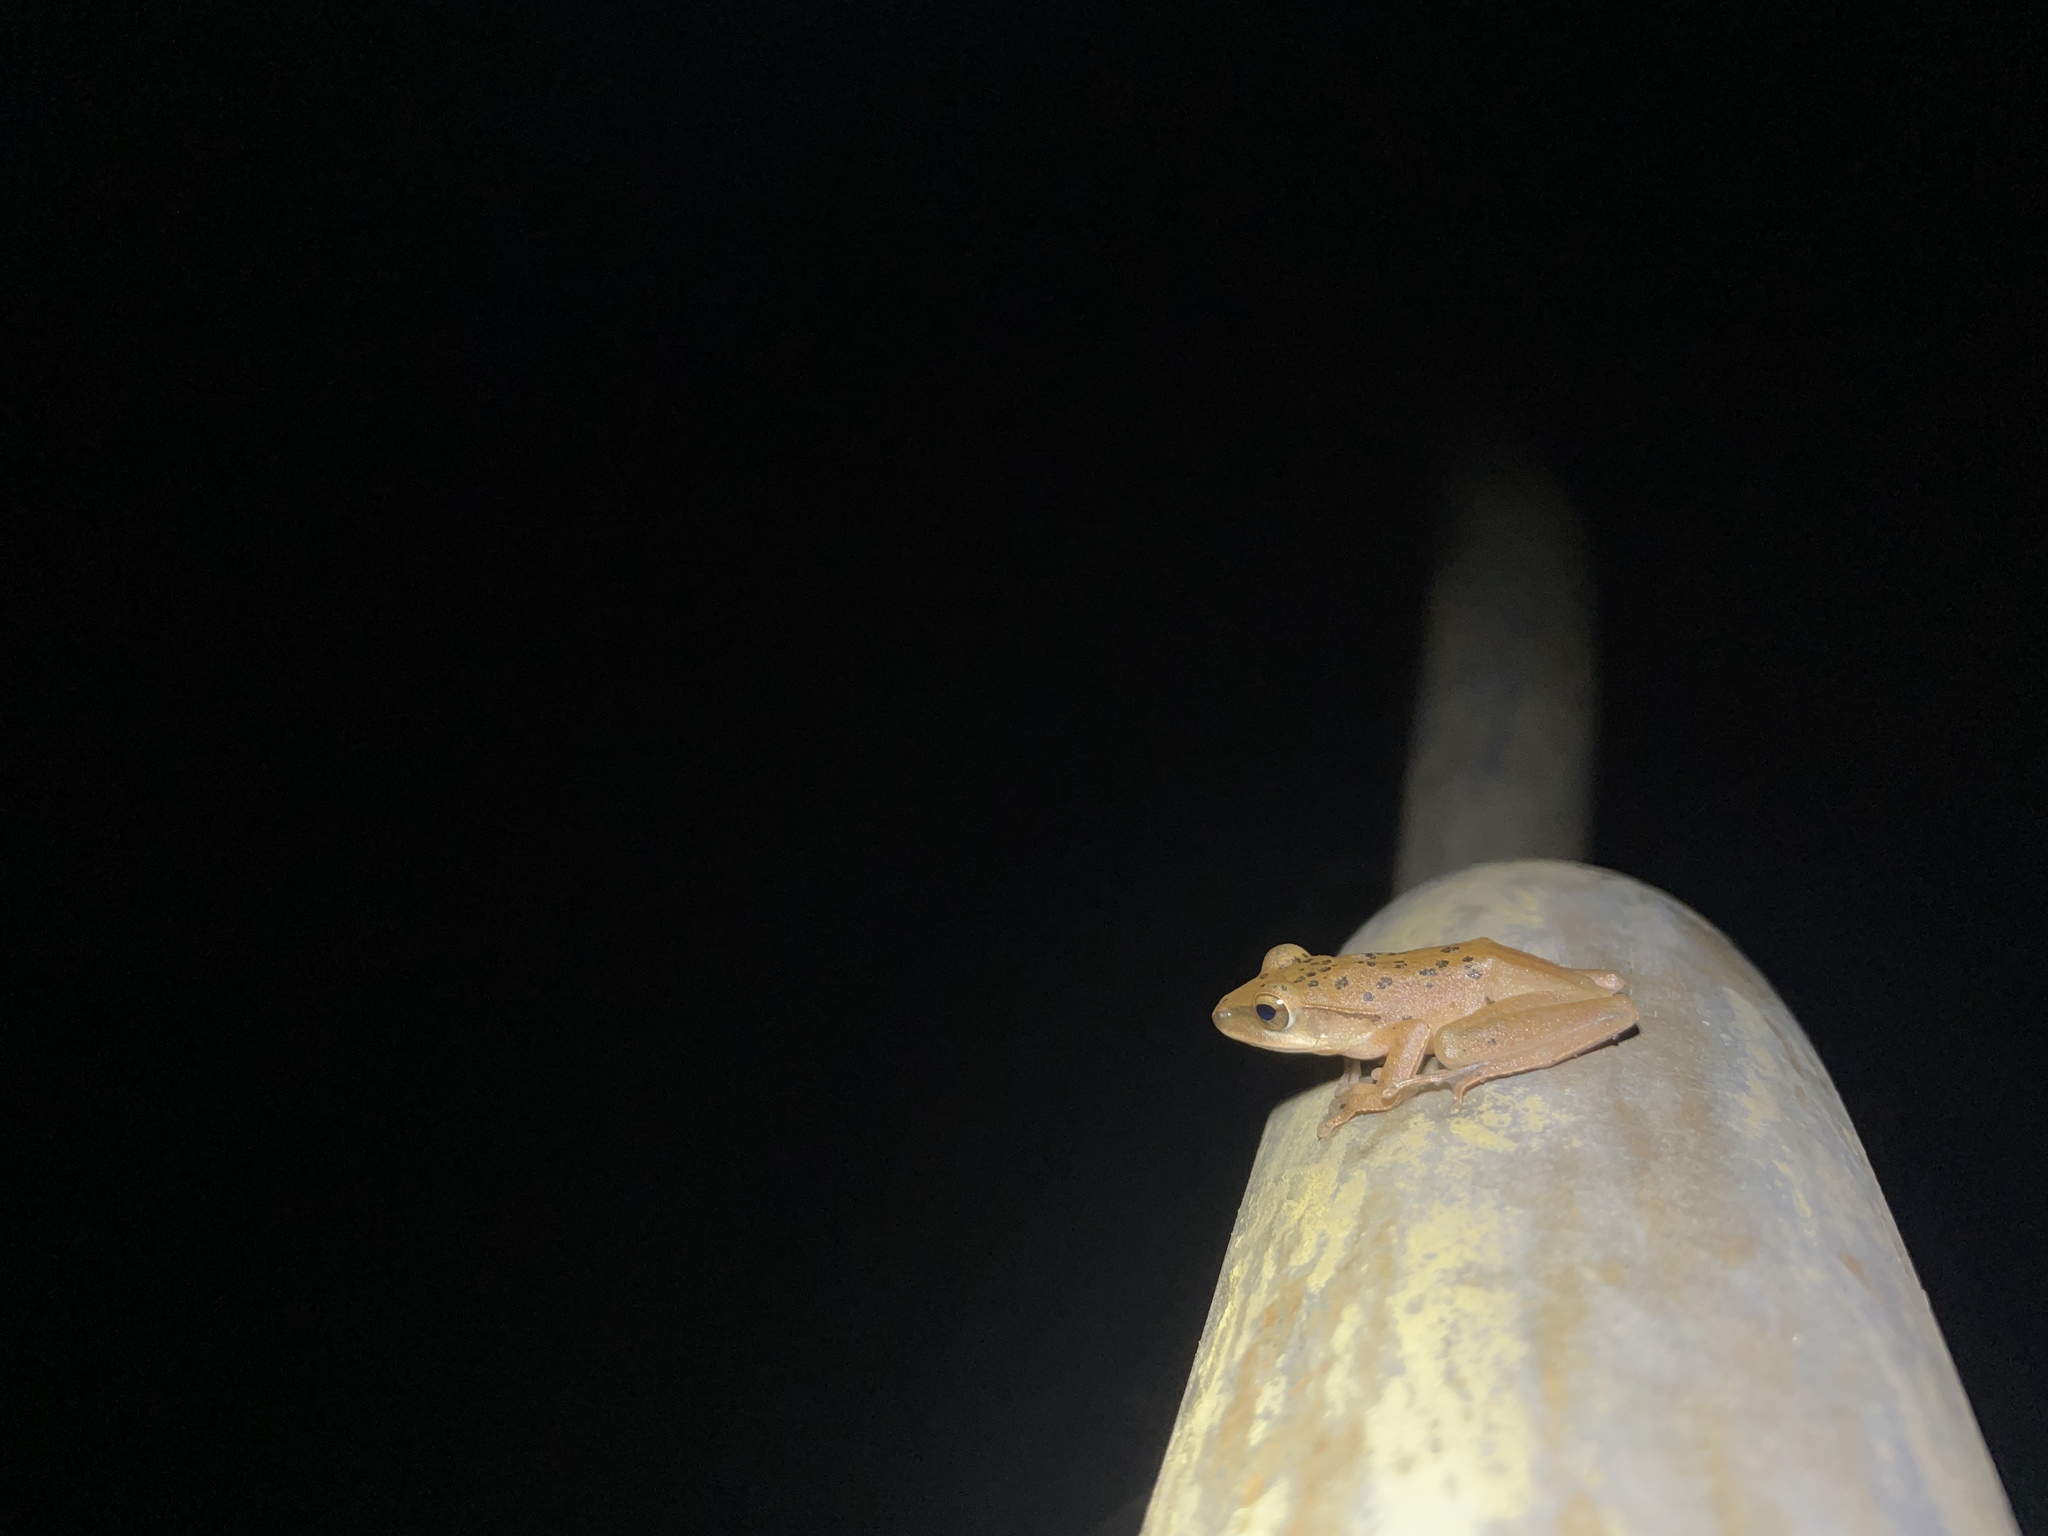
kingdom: Animalia
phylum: Chordata
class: Amphibia
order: Anura
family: Rhacophoridae
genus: Polypedates
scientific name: Polypedates megacephalus
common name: Hong kong whipping frog
